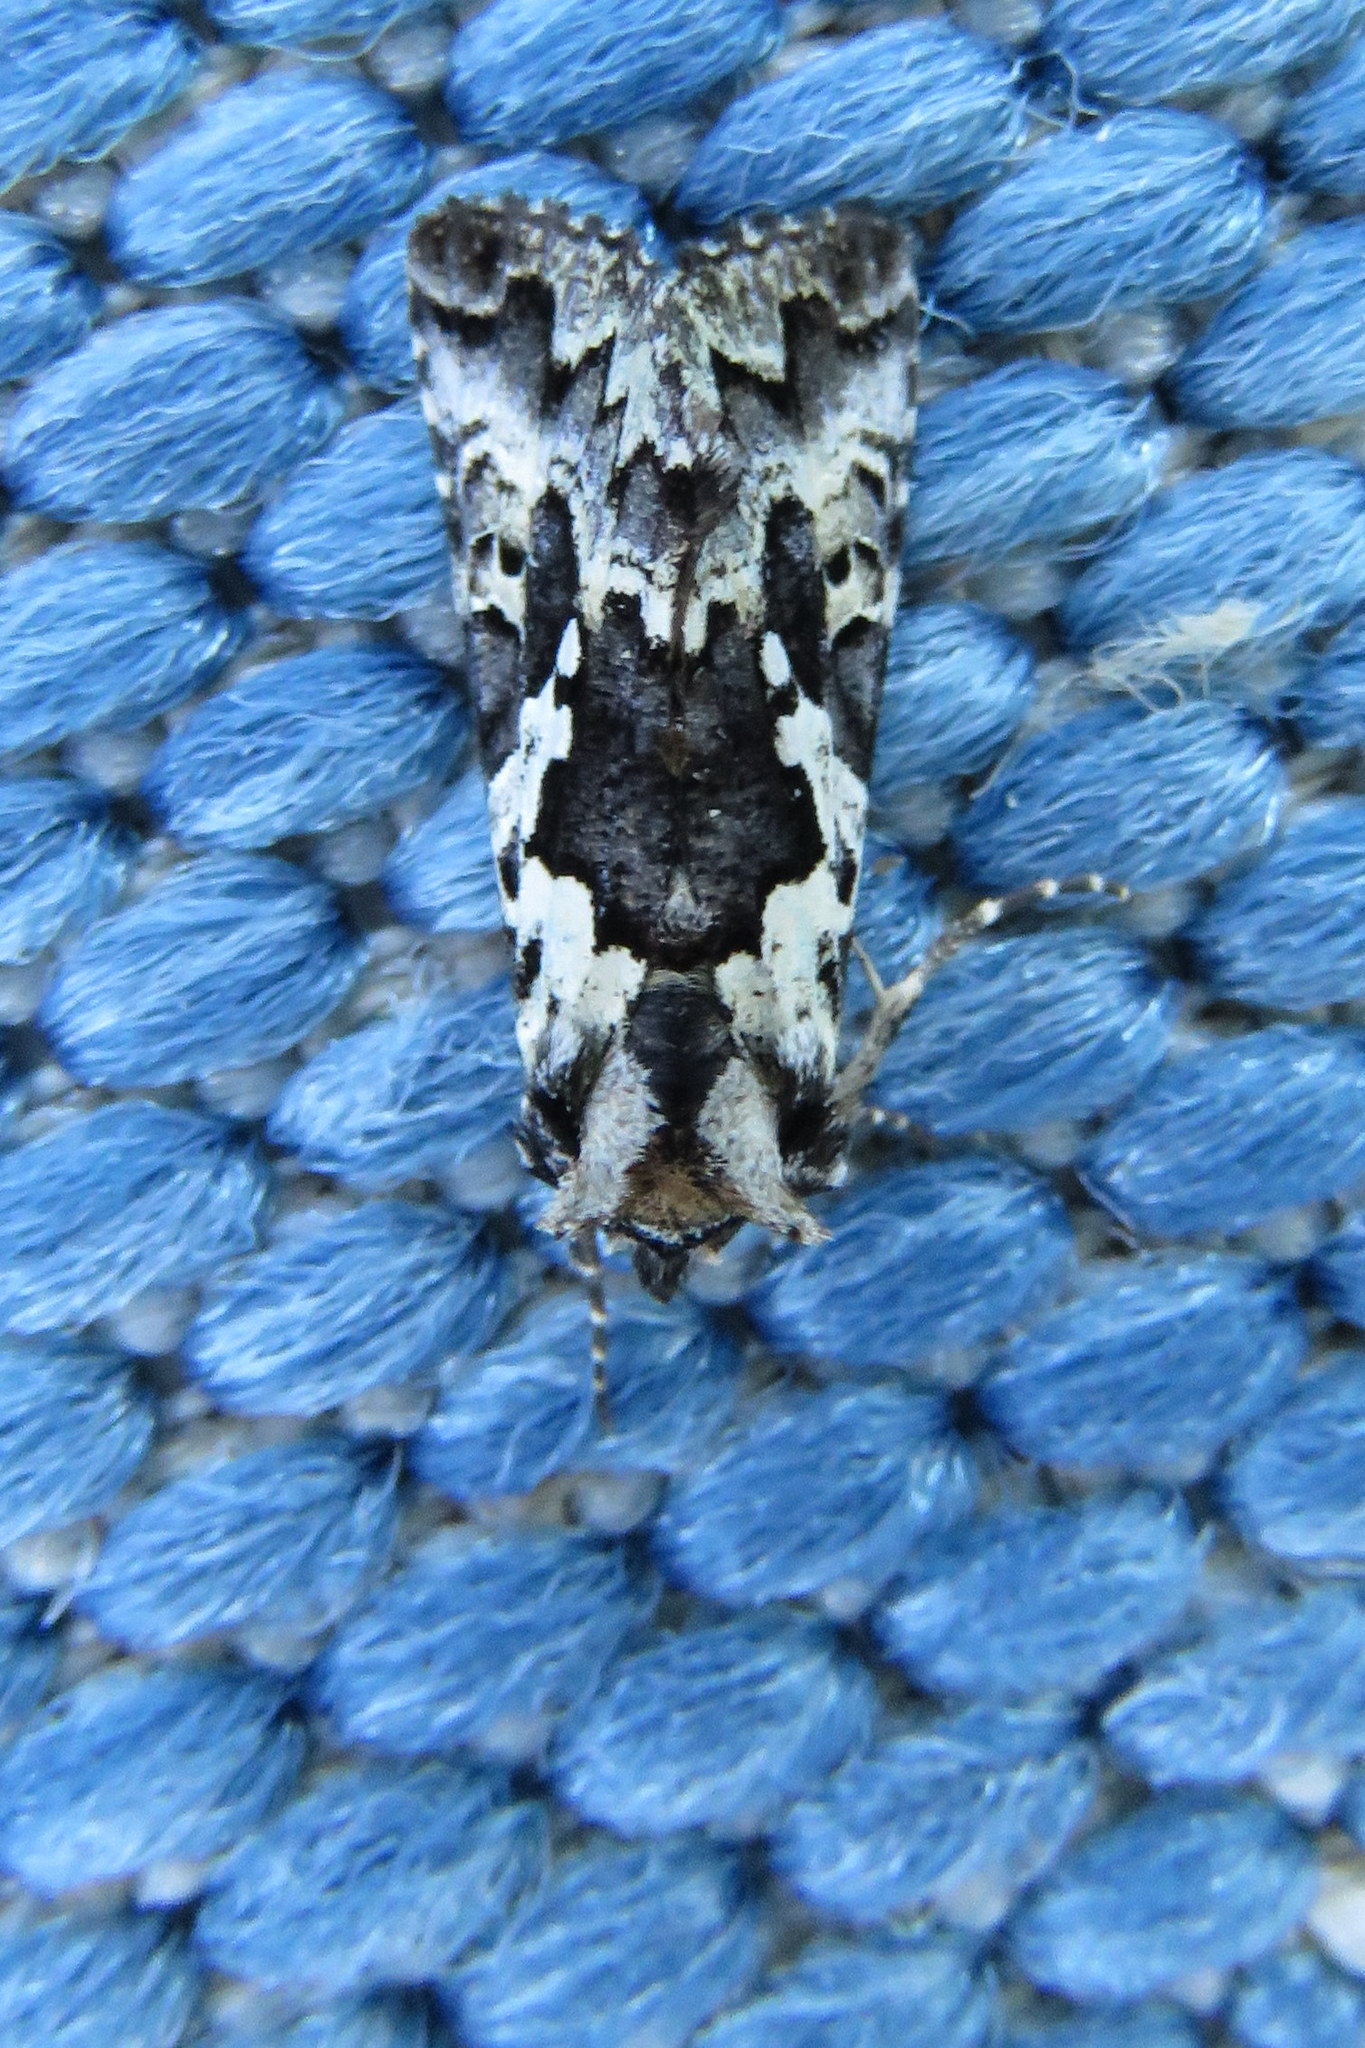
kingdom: Animalia
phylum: Arthropoda
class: Insecta
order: Lepidoptera
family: Noctuidae
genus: Syngrapha
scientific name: Syngrapha rectangula
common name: Angulated cutworm
